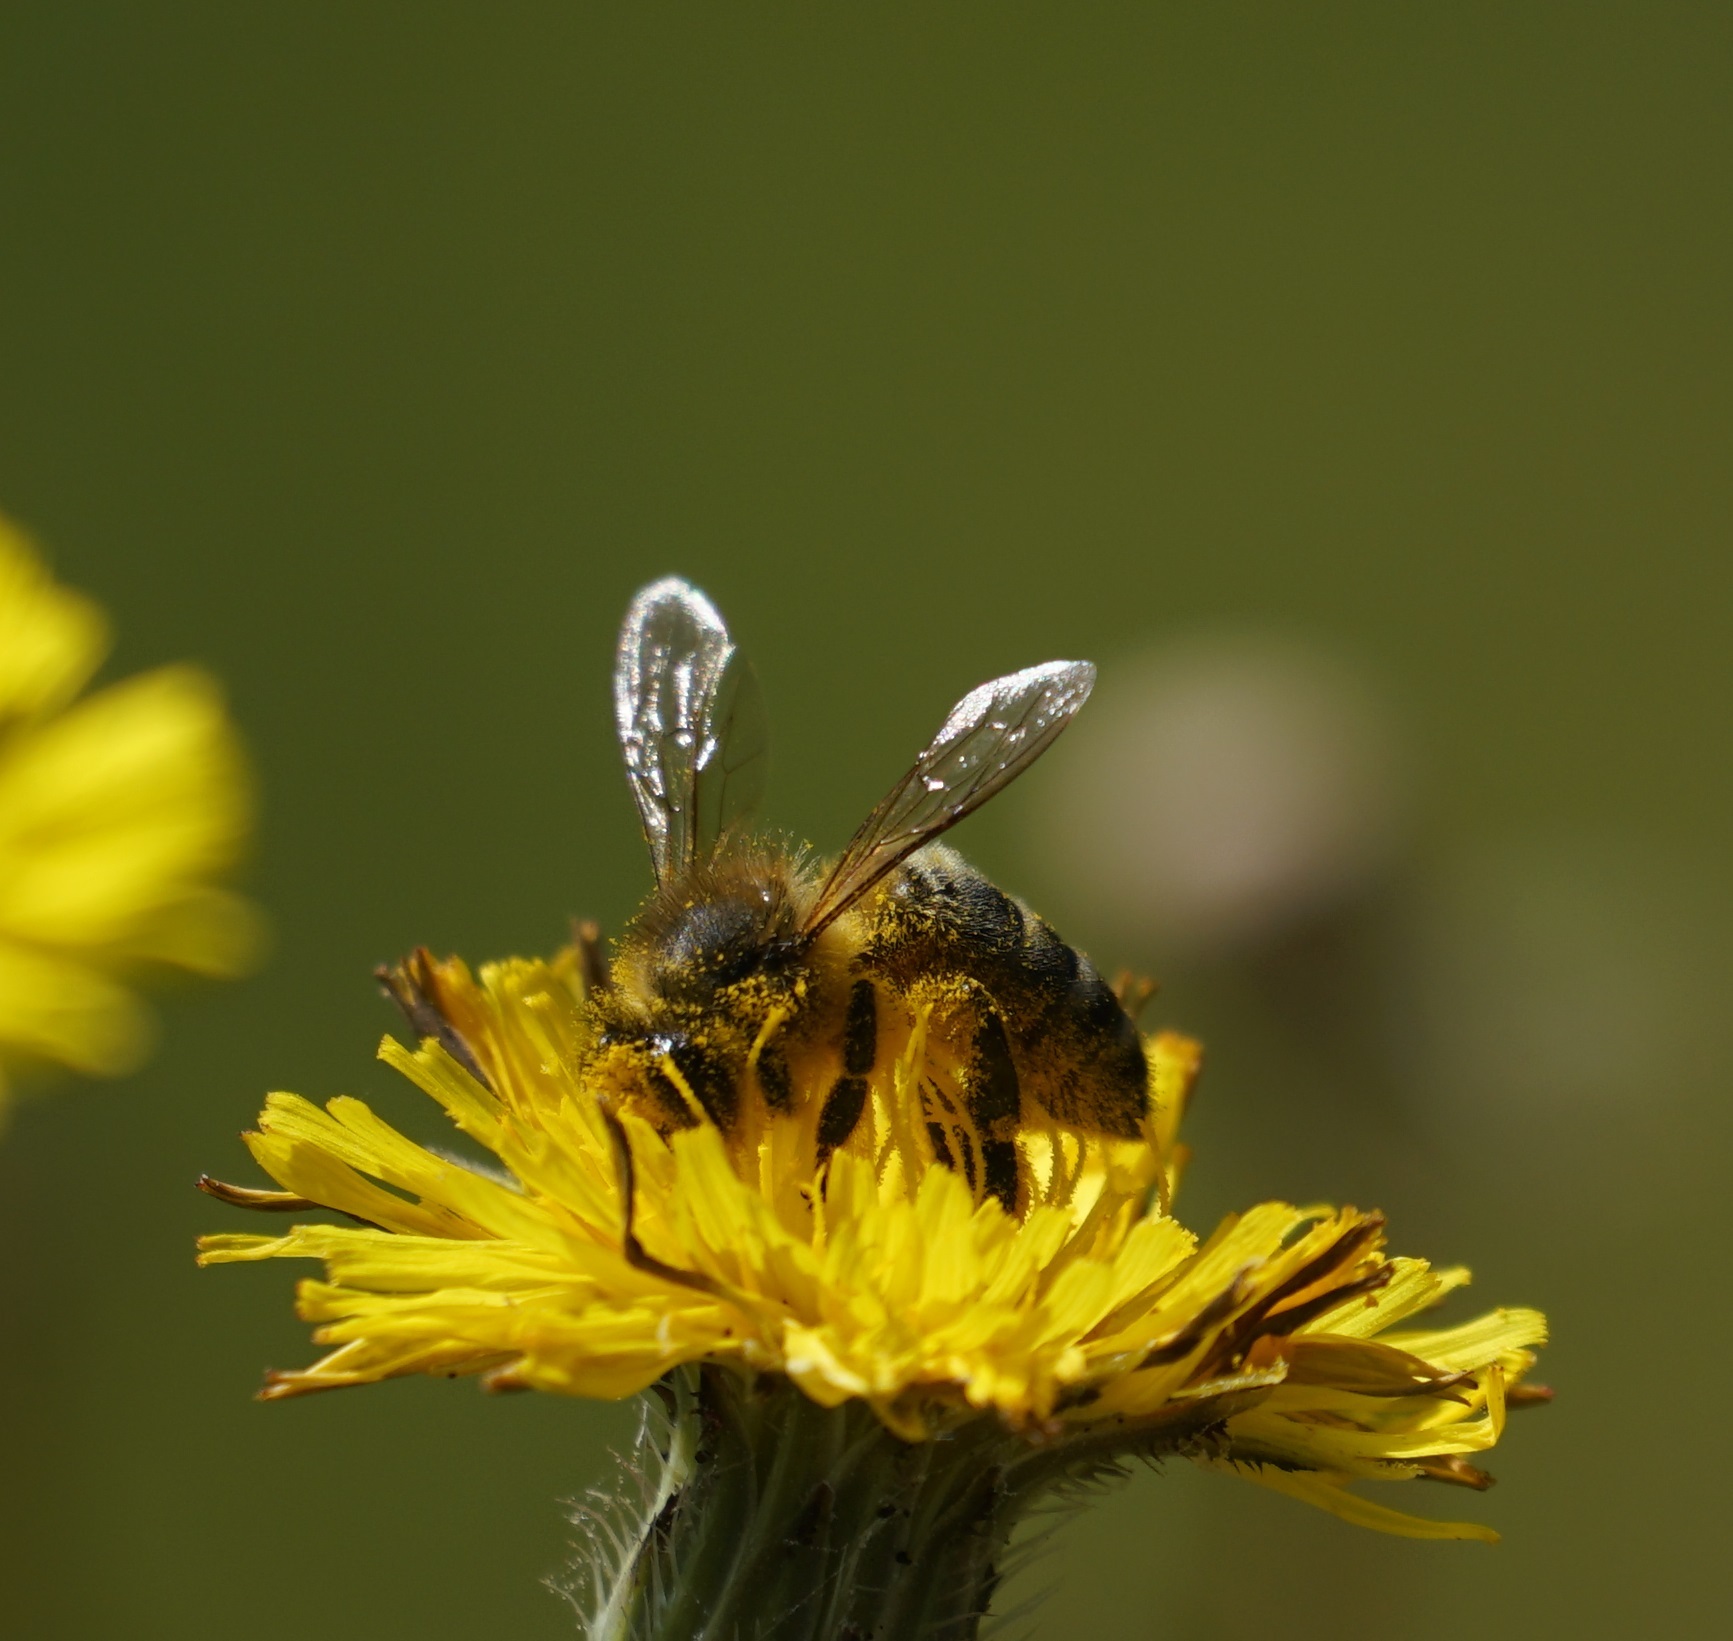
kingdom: Animalia
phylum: Arthropoda
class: Insecta
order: Hymenoptera
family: Apidae
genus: Apis
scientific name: Apis mellifera
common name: Honey bee
